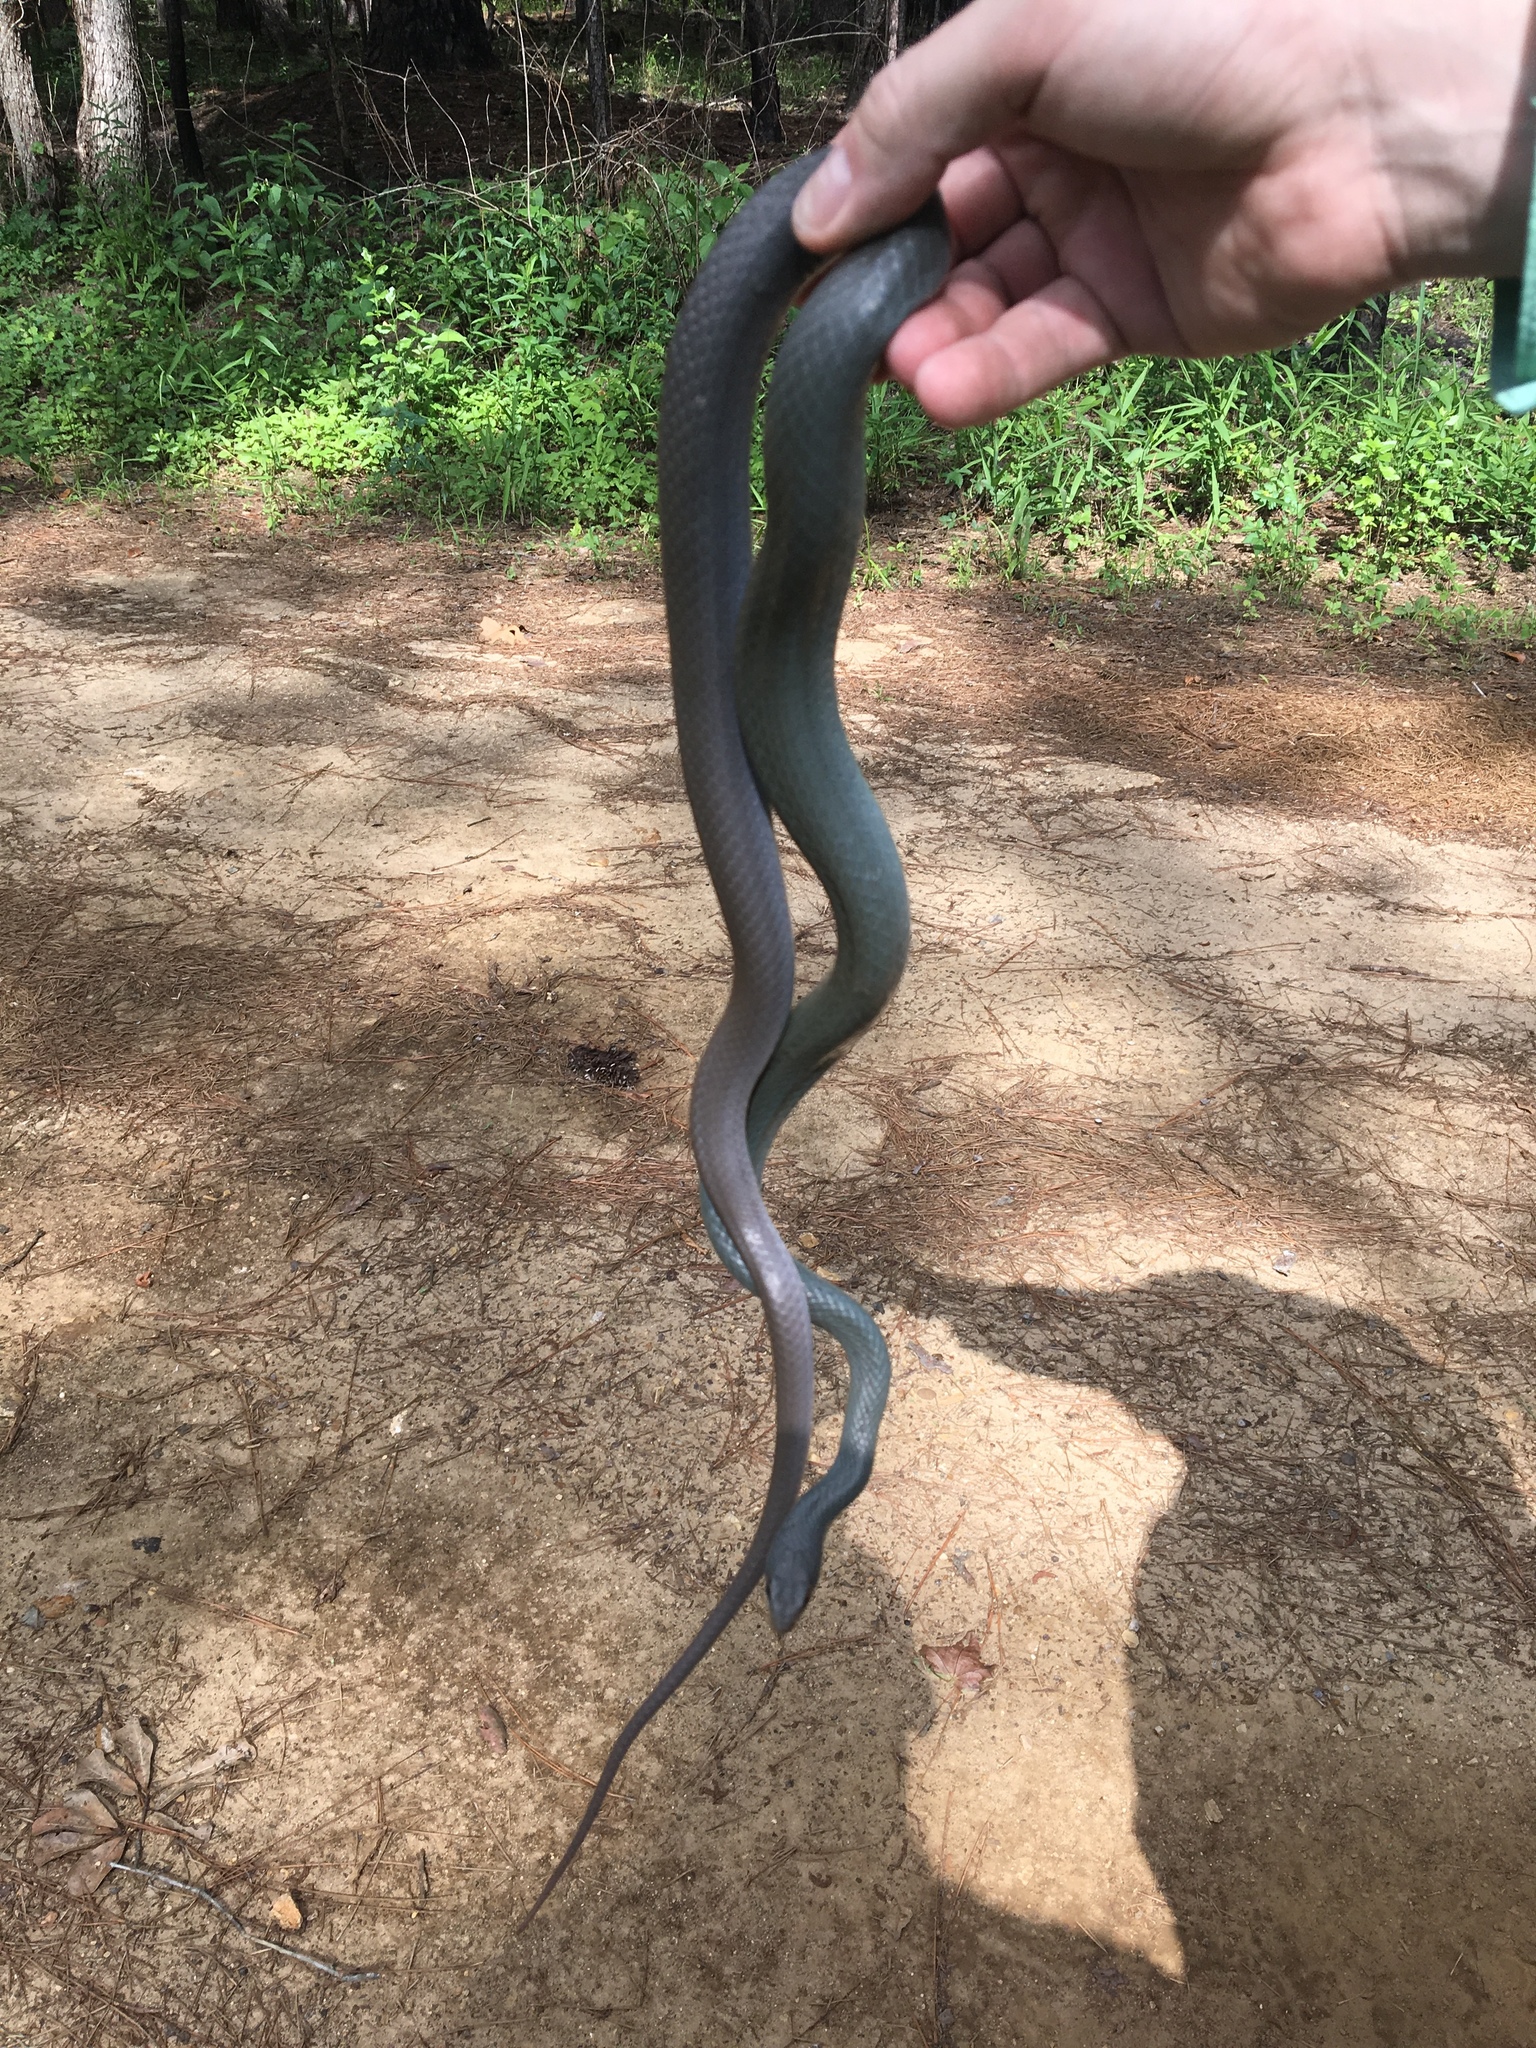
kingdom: Animalia
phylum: Chordata
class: Squamata
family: Colubridae
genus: Coluber
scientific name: Coluber constrictor
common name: Eastern racer
